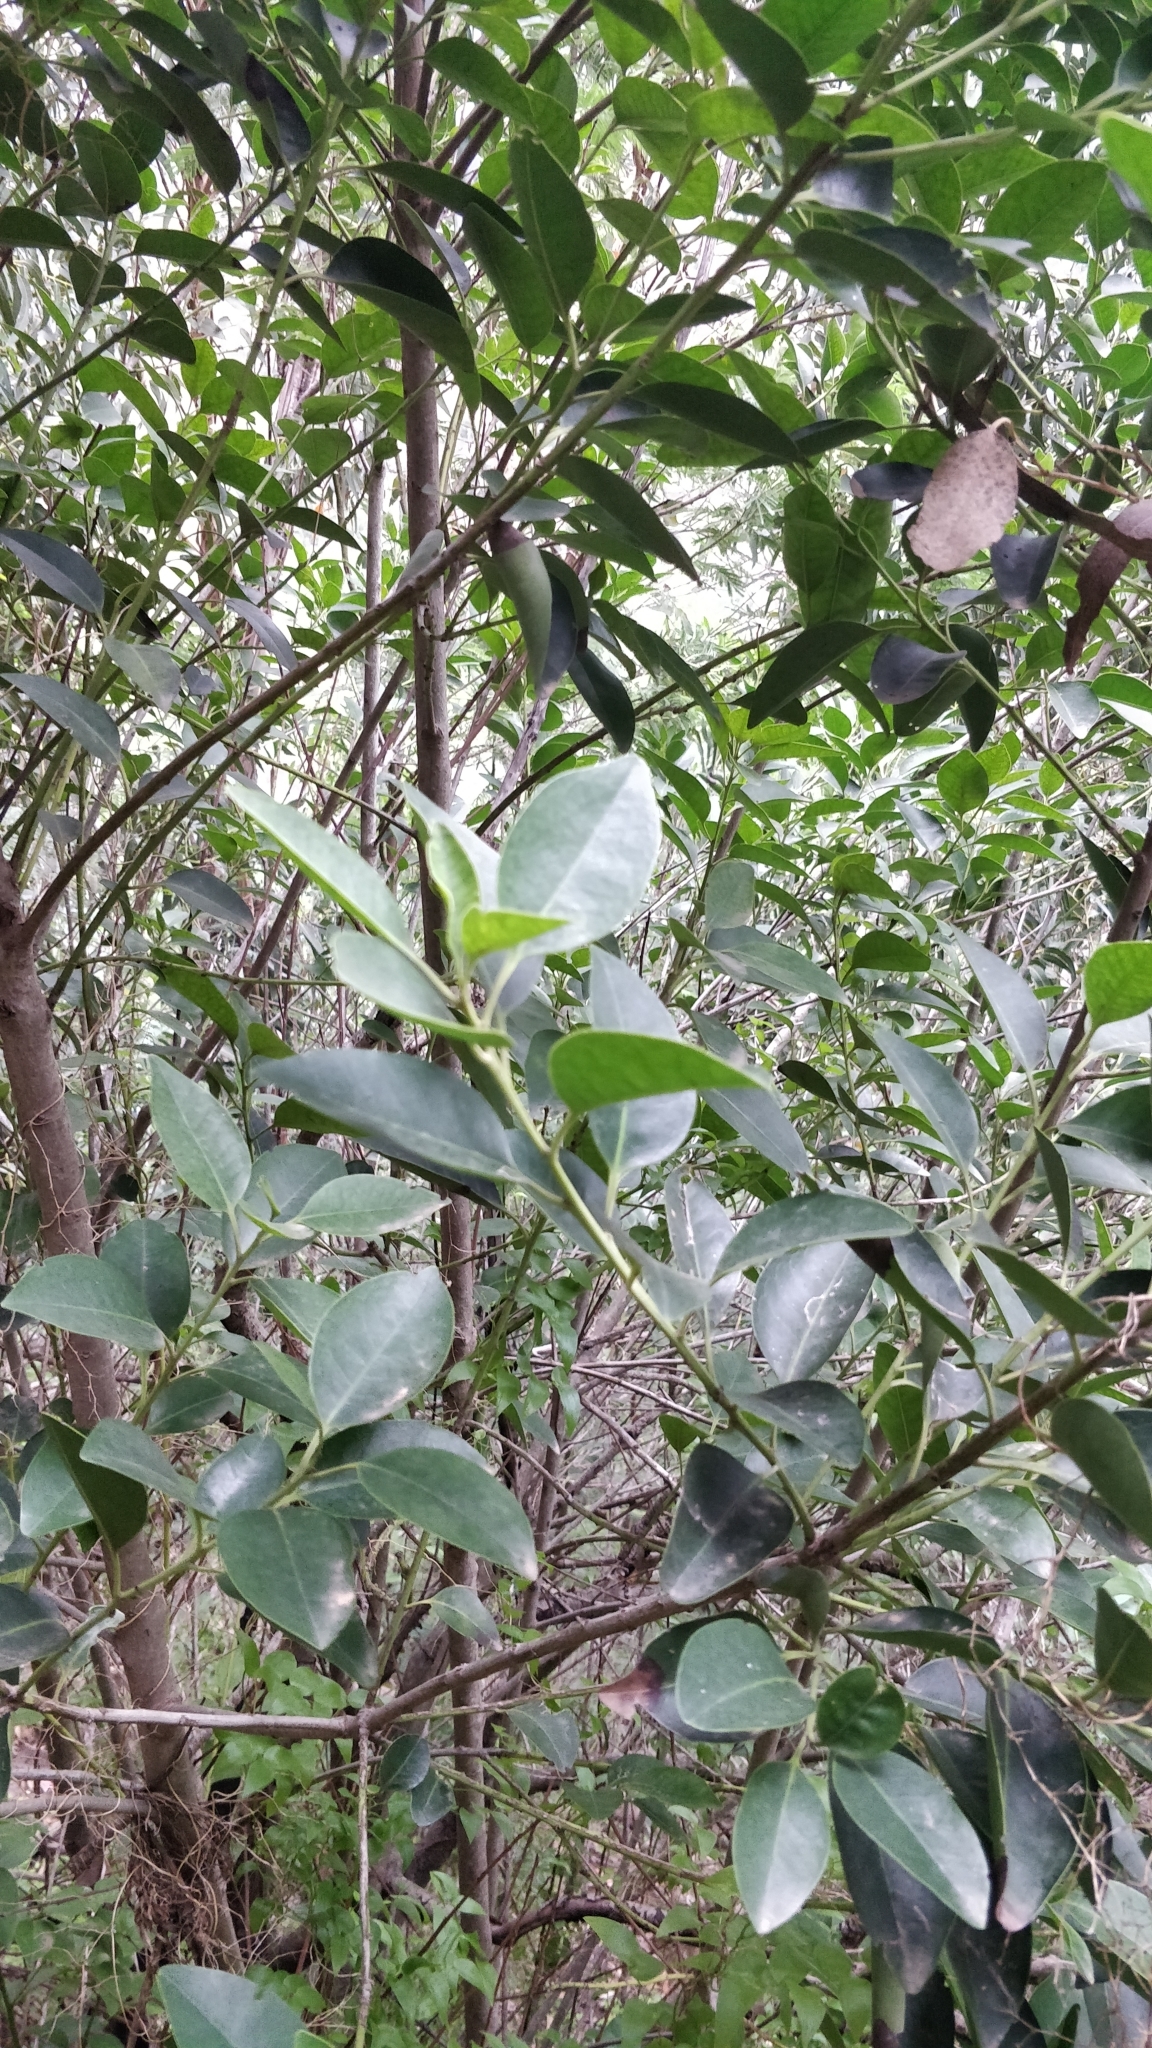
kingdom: Plantae
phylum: Tracheophyta
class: Magnoliopsida
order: Aquifoliales
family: Aquifoliaceae
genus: Ilex
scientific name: Ilex canariensis
